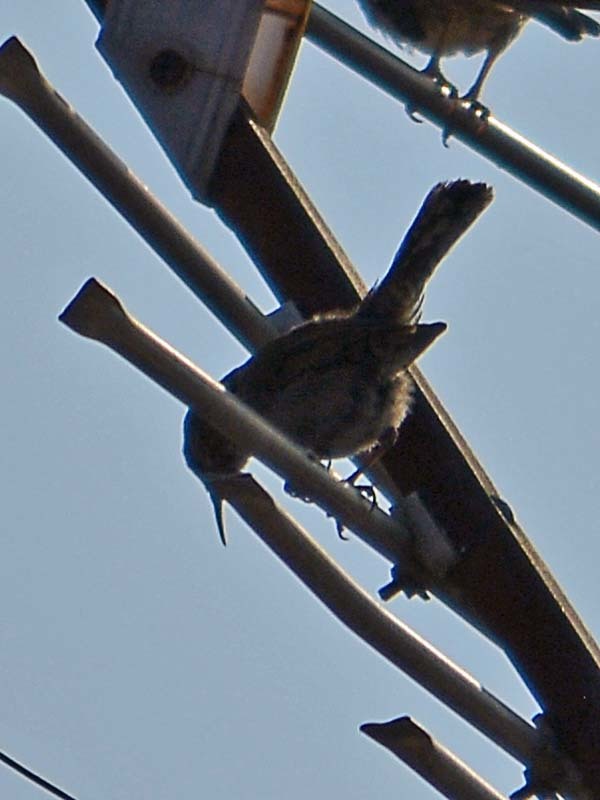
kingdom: Animalia
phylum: Chordata
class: Aves
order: Passeriformes
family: Troglodytidae
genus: Thryomanes
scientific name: Thryomanes bewickii
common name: Bewick's wren
